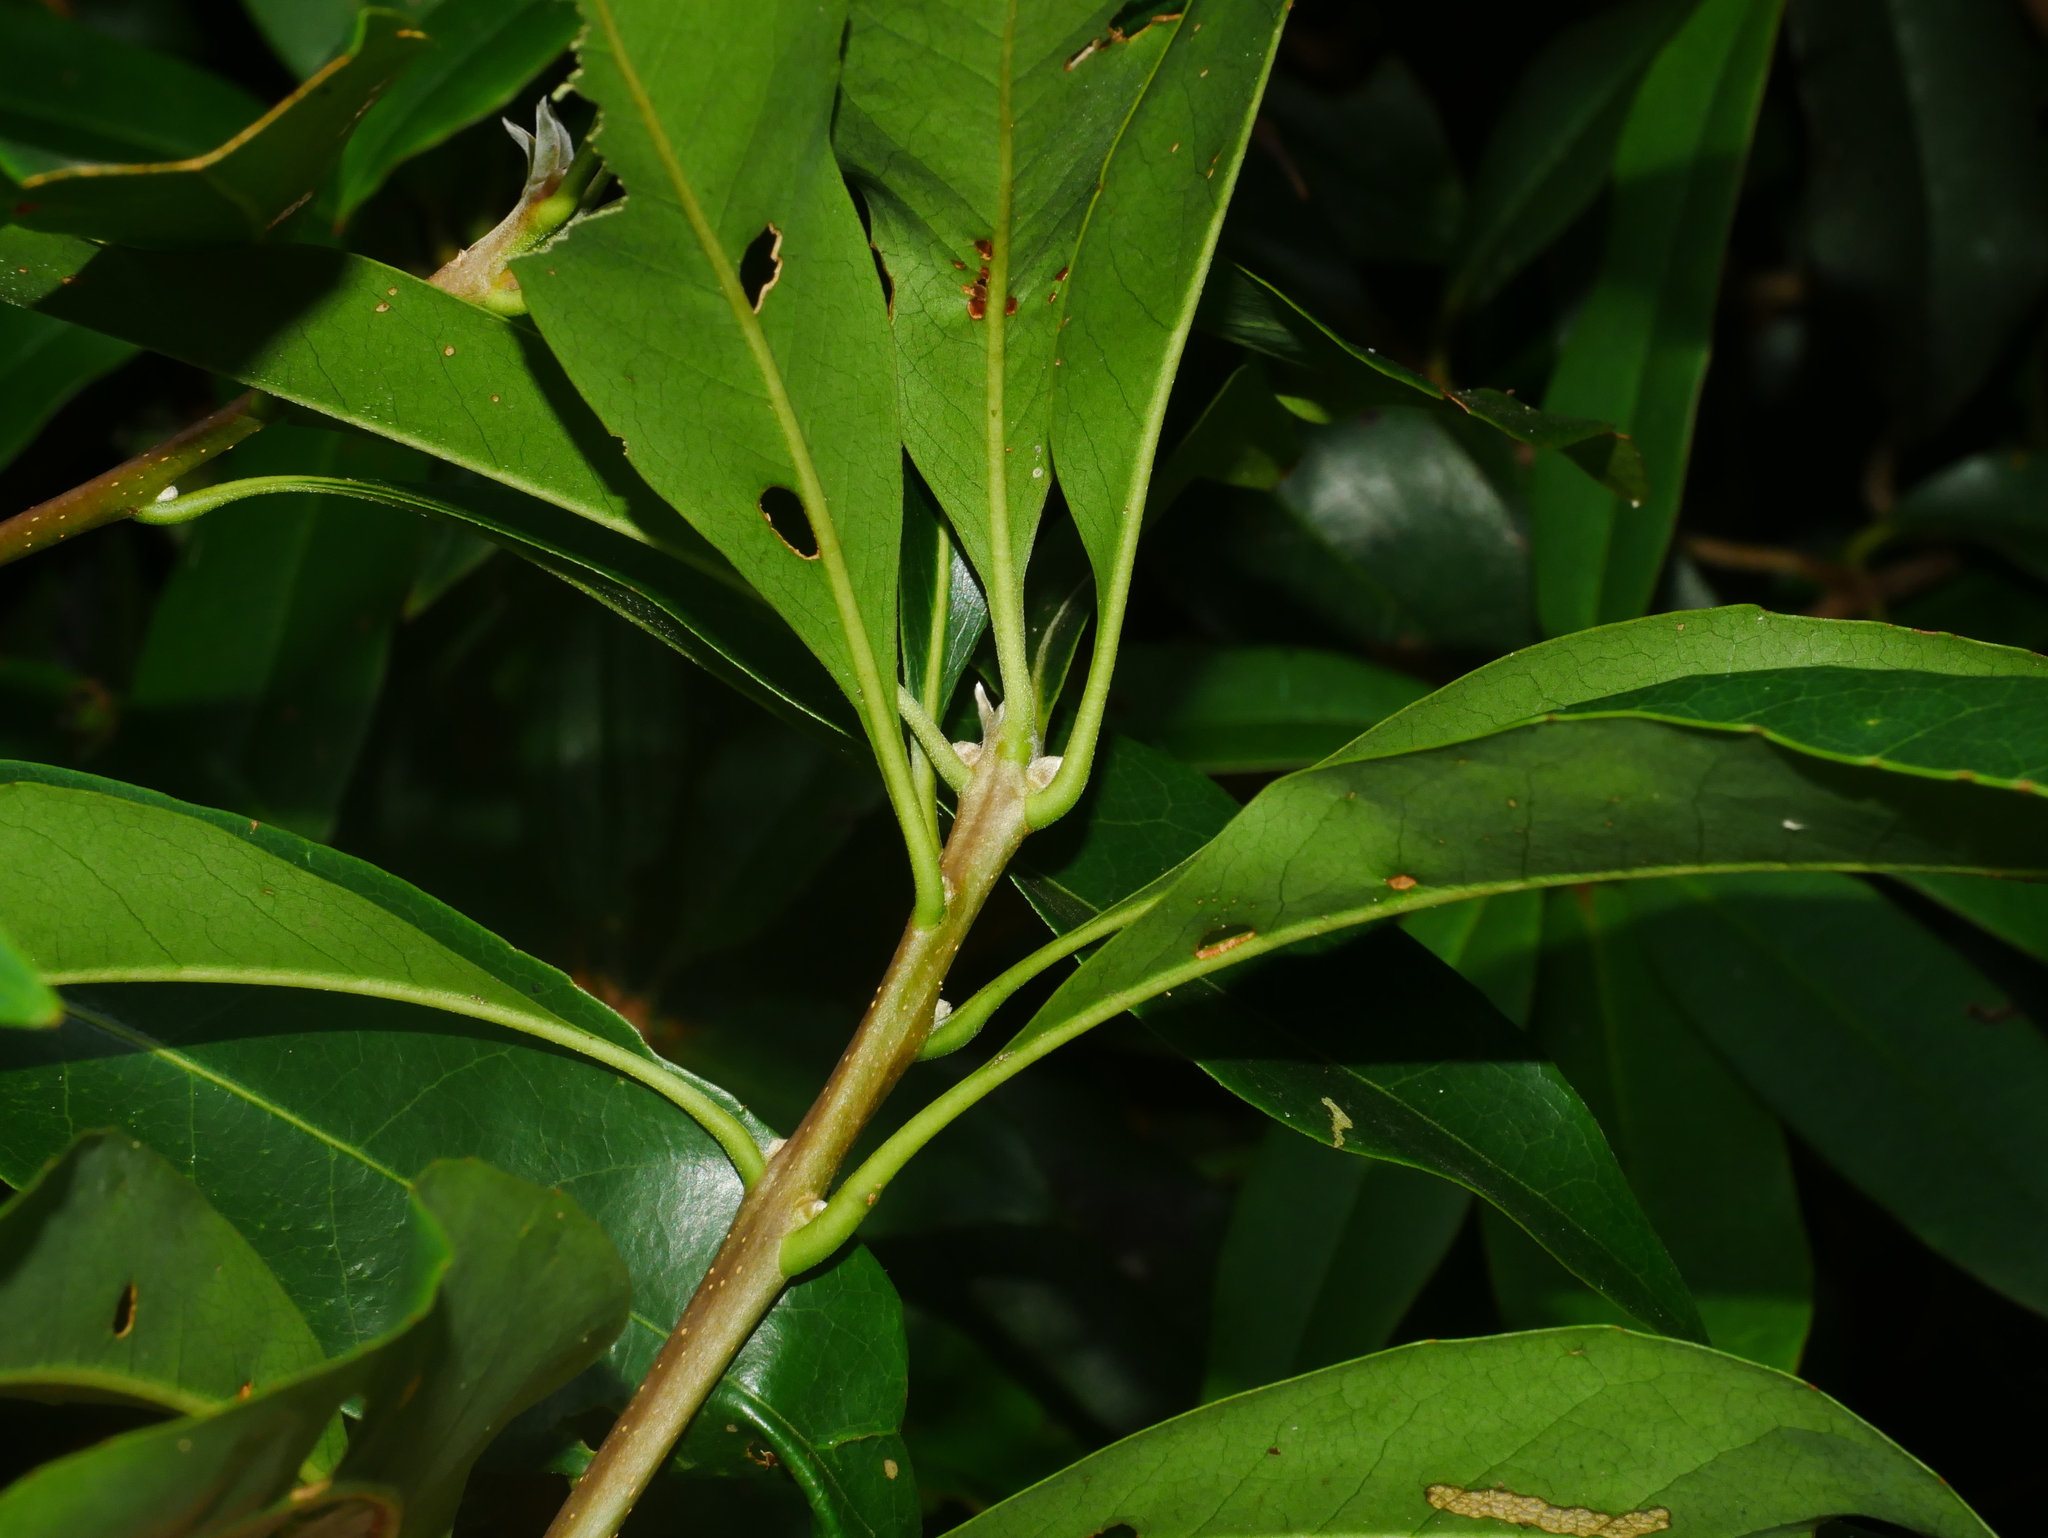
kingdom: Plantae
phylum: Tracheophyta
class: Magnoliopsida
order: Ericales
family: Theaceae
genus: Schima
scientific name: Schima superba
